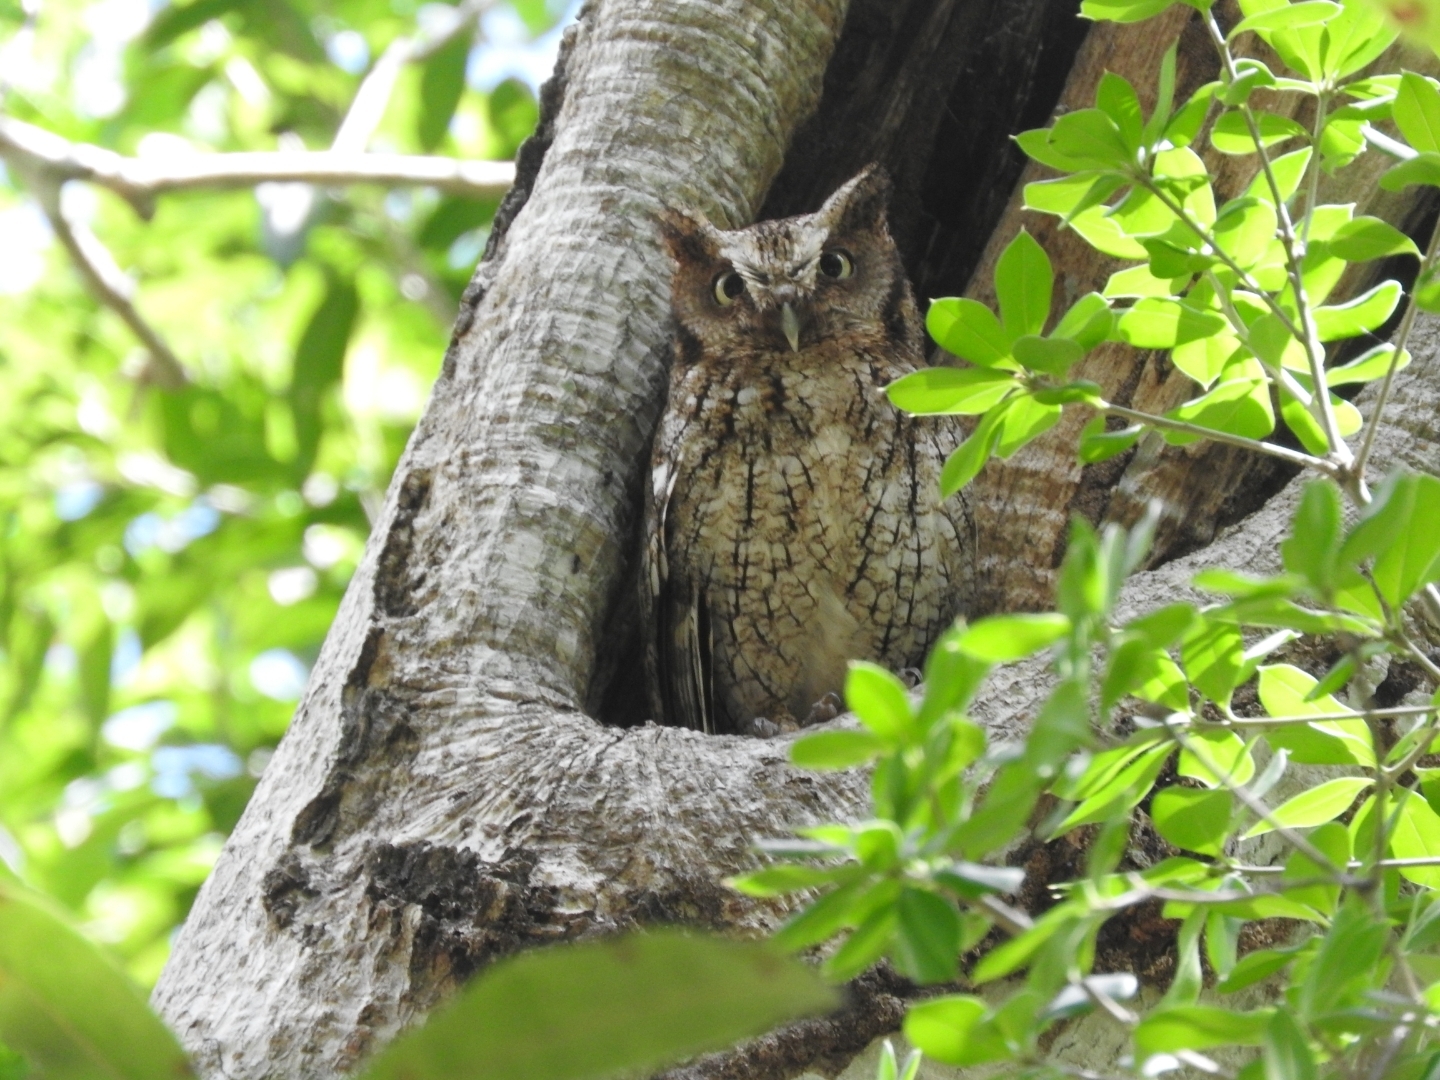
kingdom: Animalia
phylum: Chordata
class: Aves
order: Strigiformes
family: Strigidae
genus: Megascops
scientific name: Megascops guatemalae
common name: Vermiculated screech-owl
